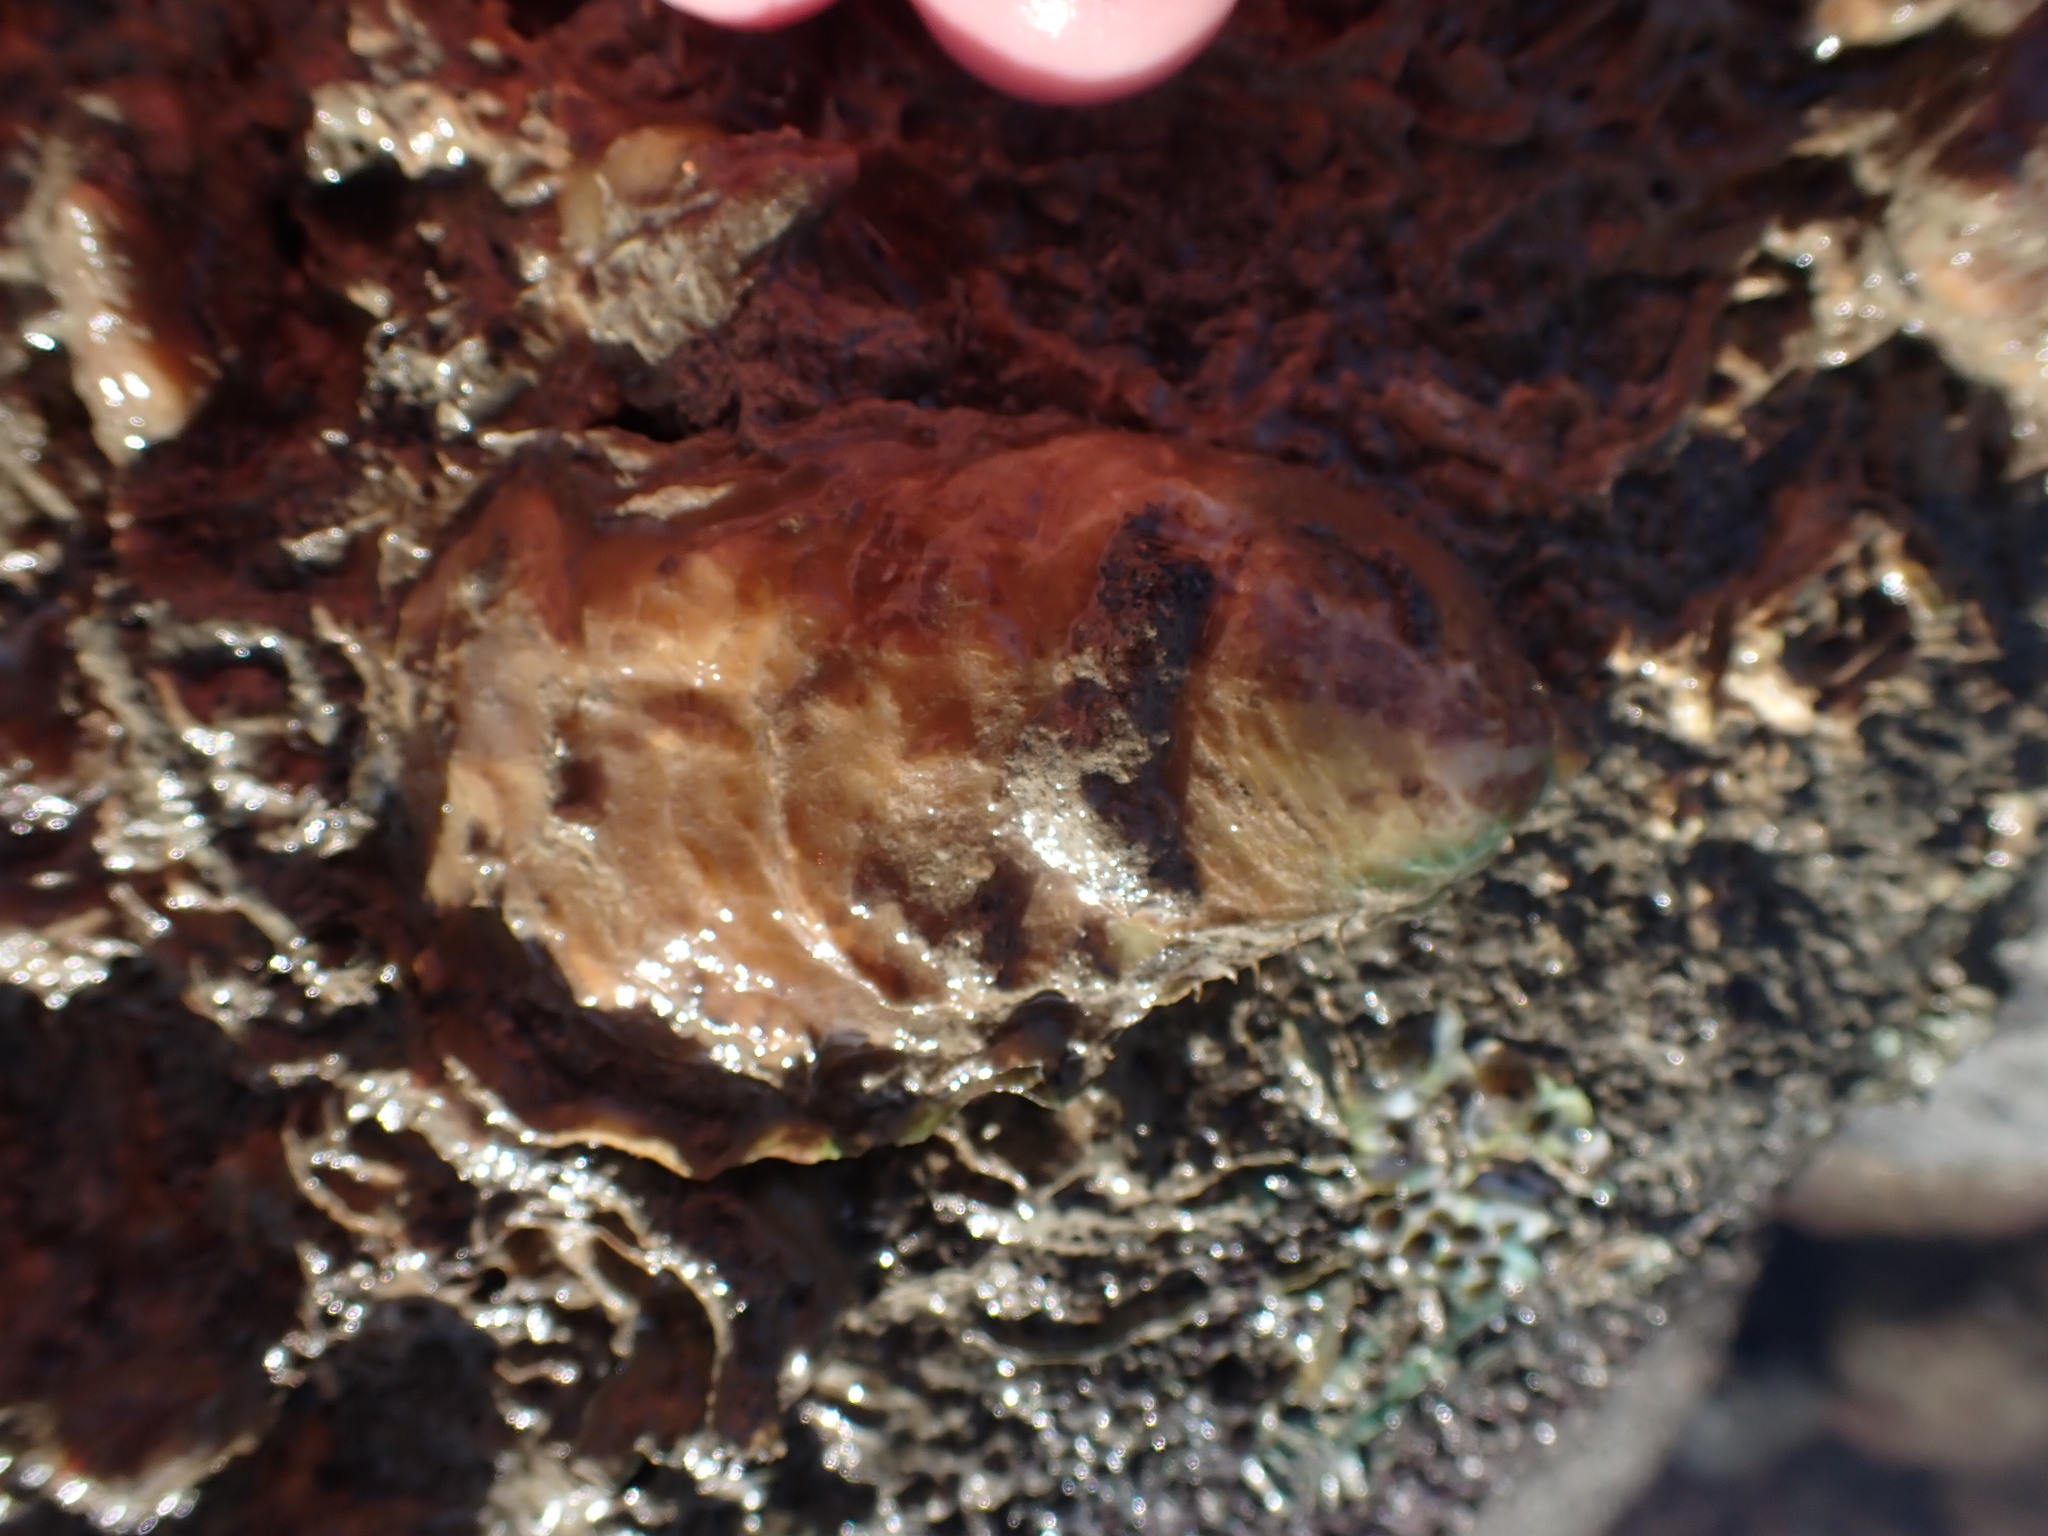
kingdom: Animalia
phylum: Mollusca
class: Bivalvia
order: Ostreida
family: Ostreidae
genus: Magallana
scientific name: Magallana gigas
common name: Pacific oyster
